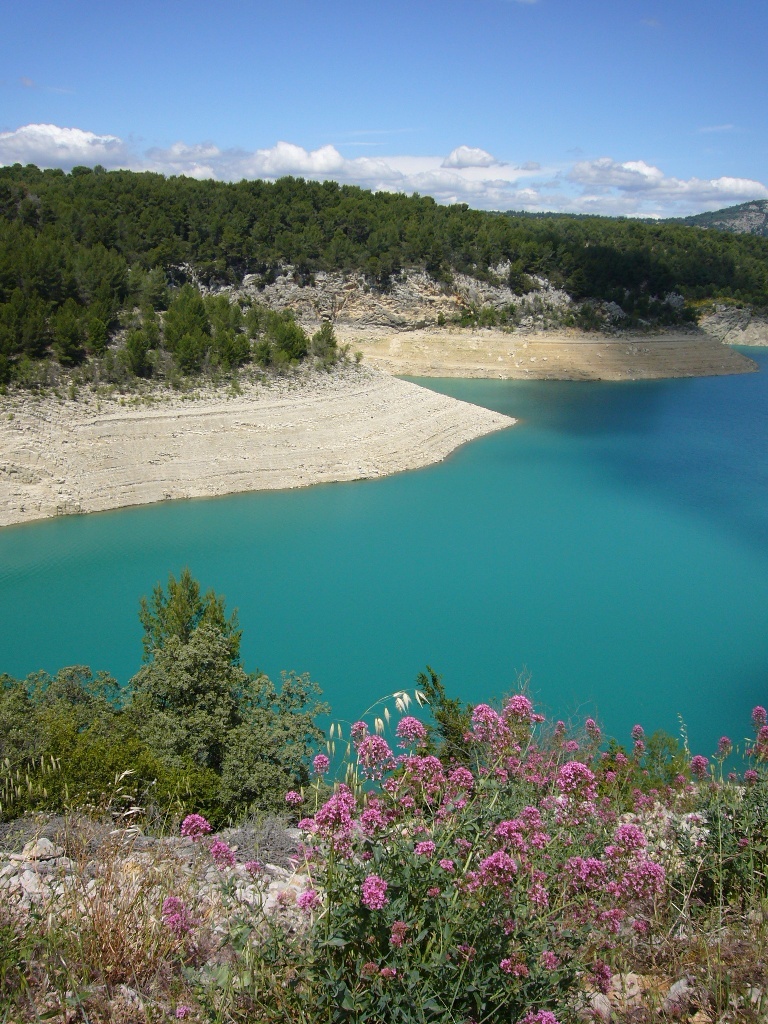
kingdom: Plantae
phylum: Tracheophyta
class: Magnoliopsida
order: Dipsacales
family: Caprifoliaceae
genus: Centranthus
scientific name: Centranthus ruber
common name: Red valerian
